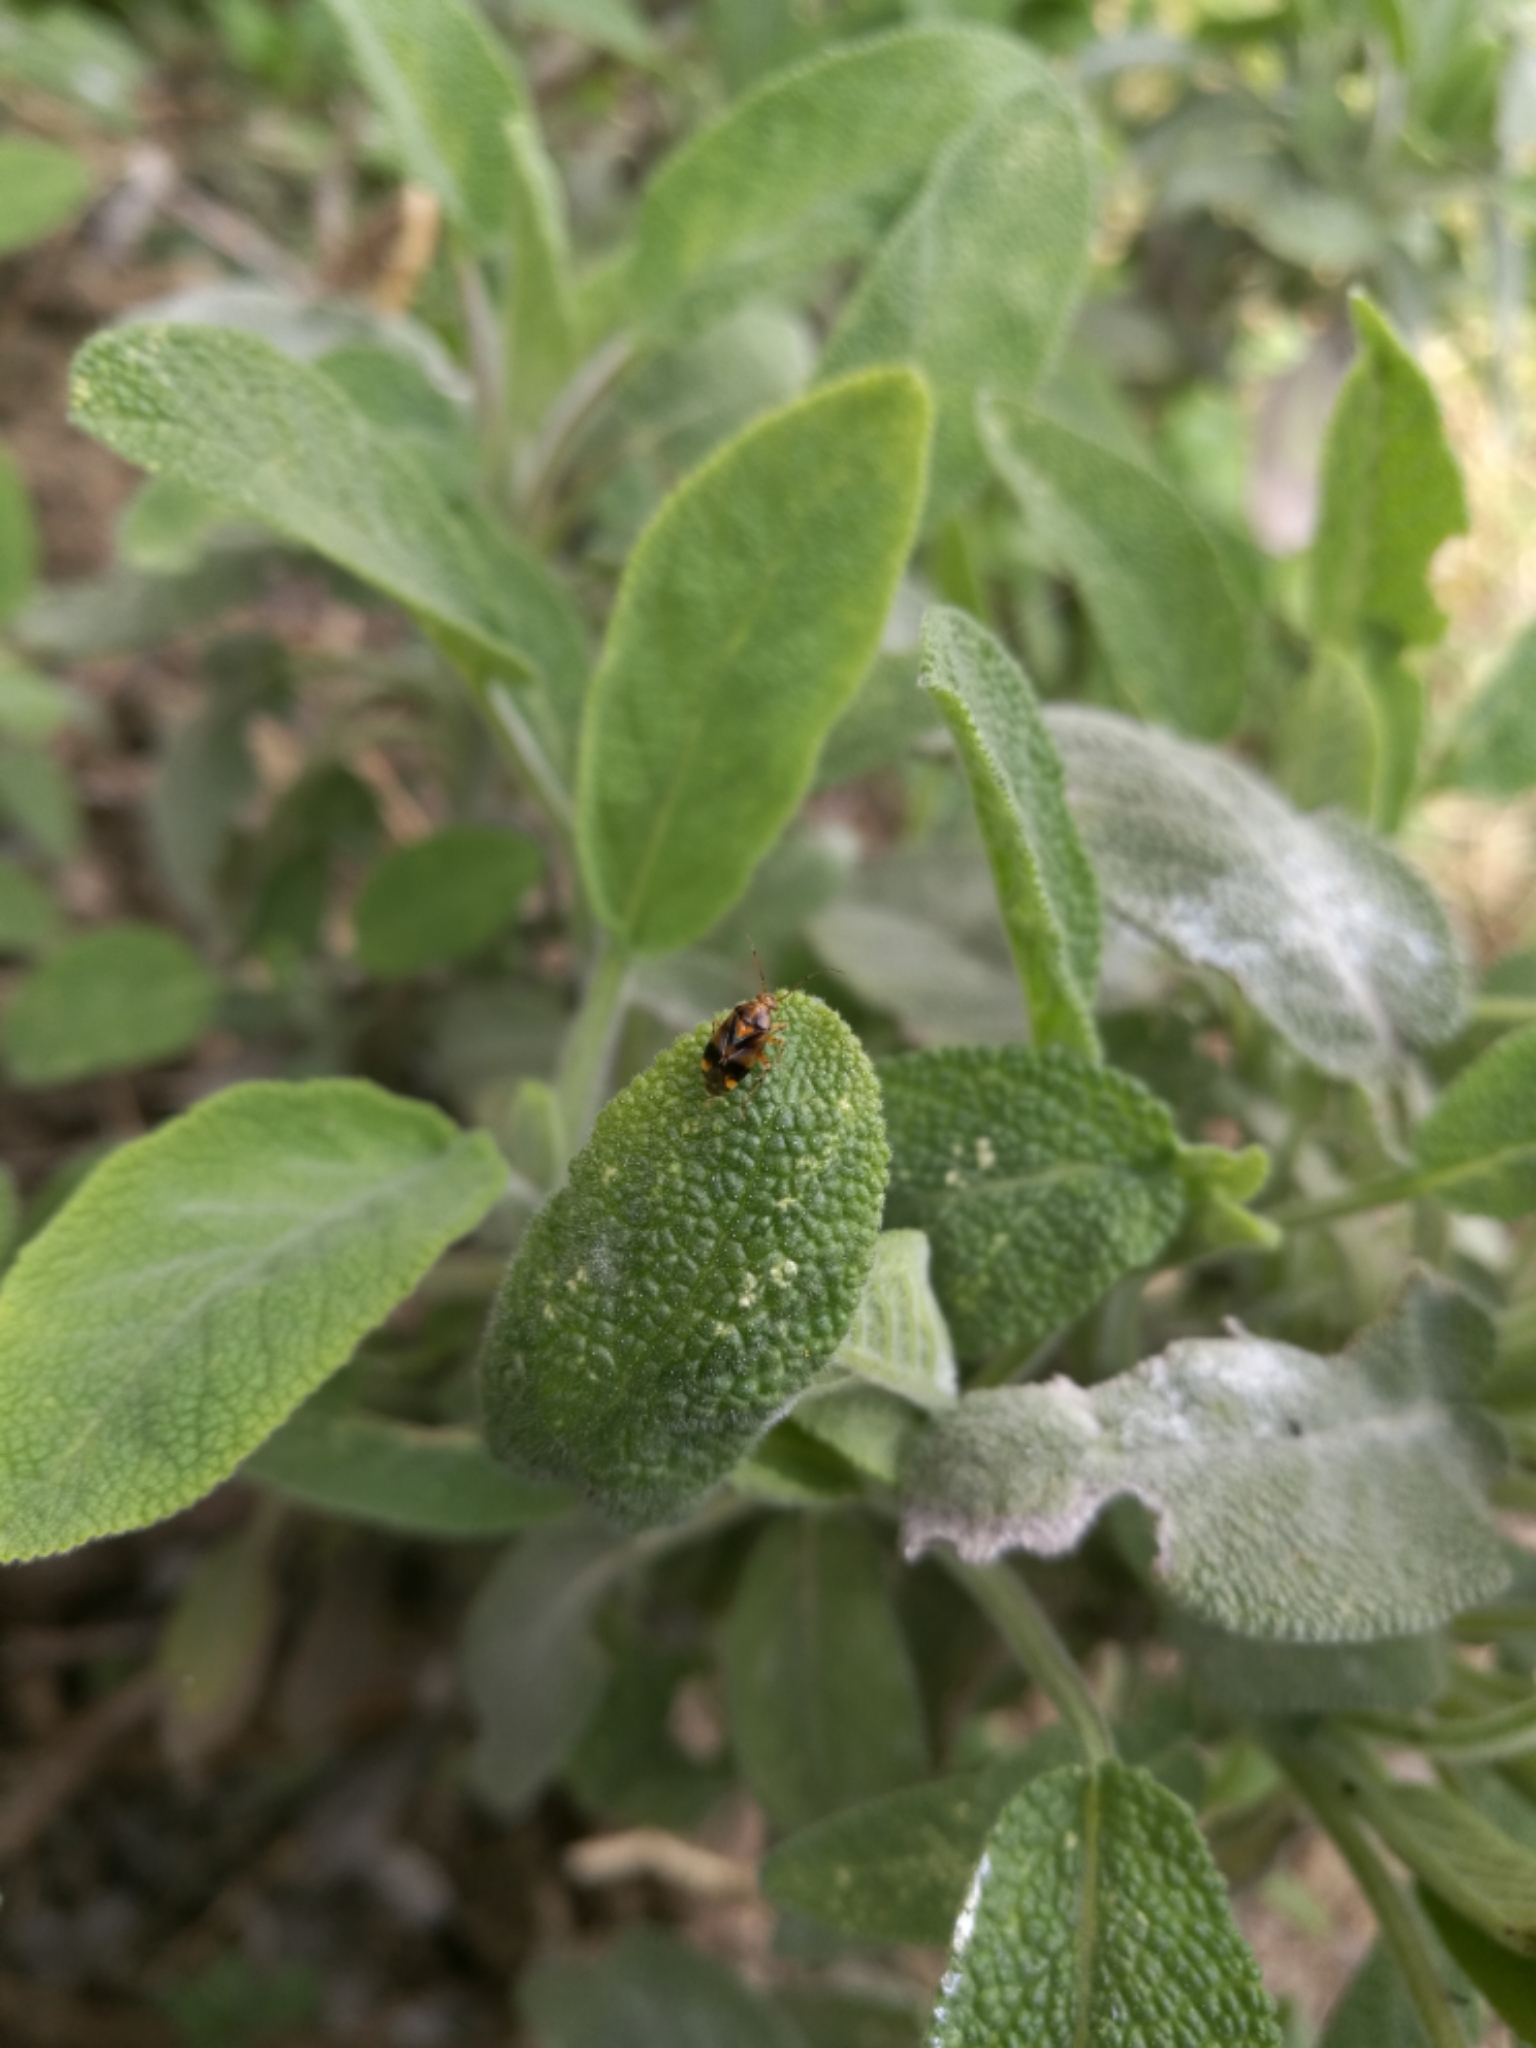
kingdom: Animalia
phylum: Arthropoda
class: Insecta
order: Hemiptera
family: Miridae
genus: Liocoris
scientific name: Liocoris tripustulatus
